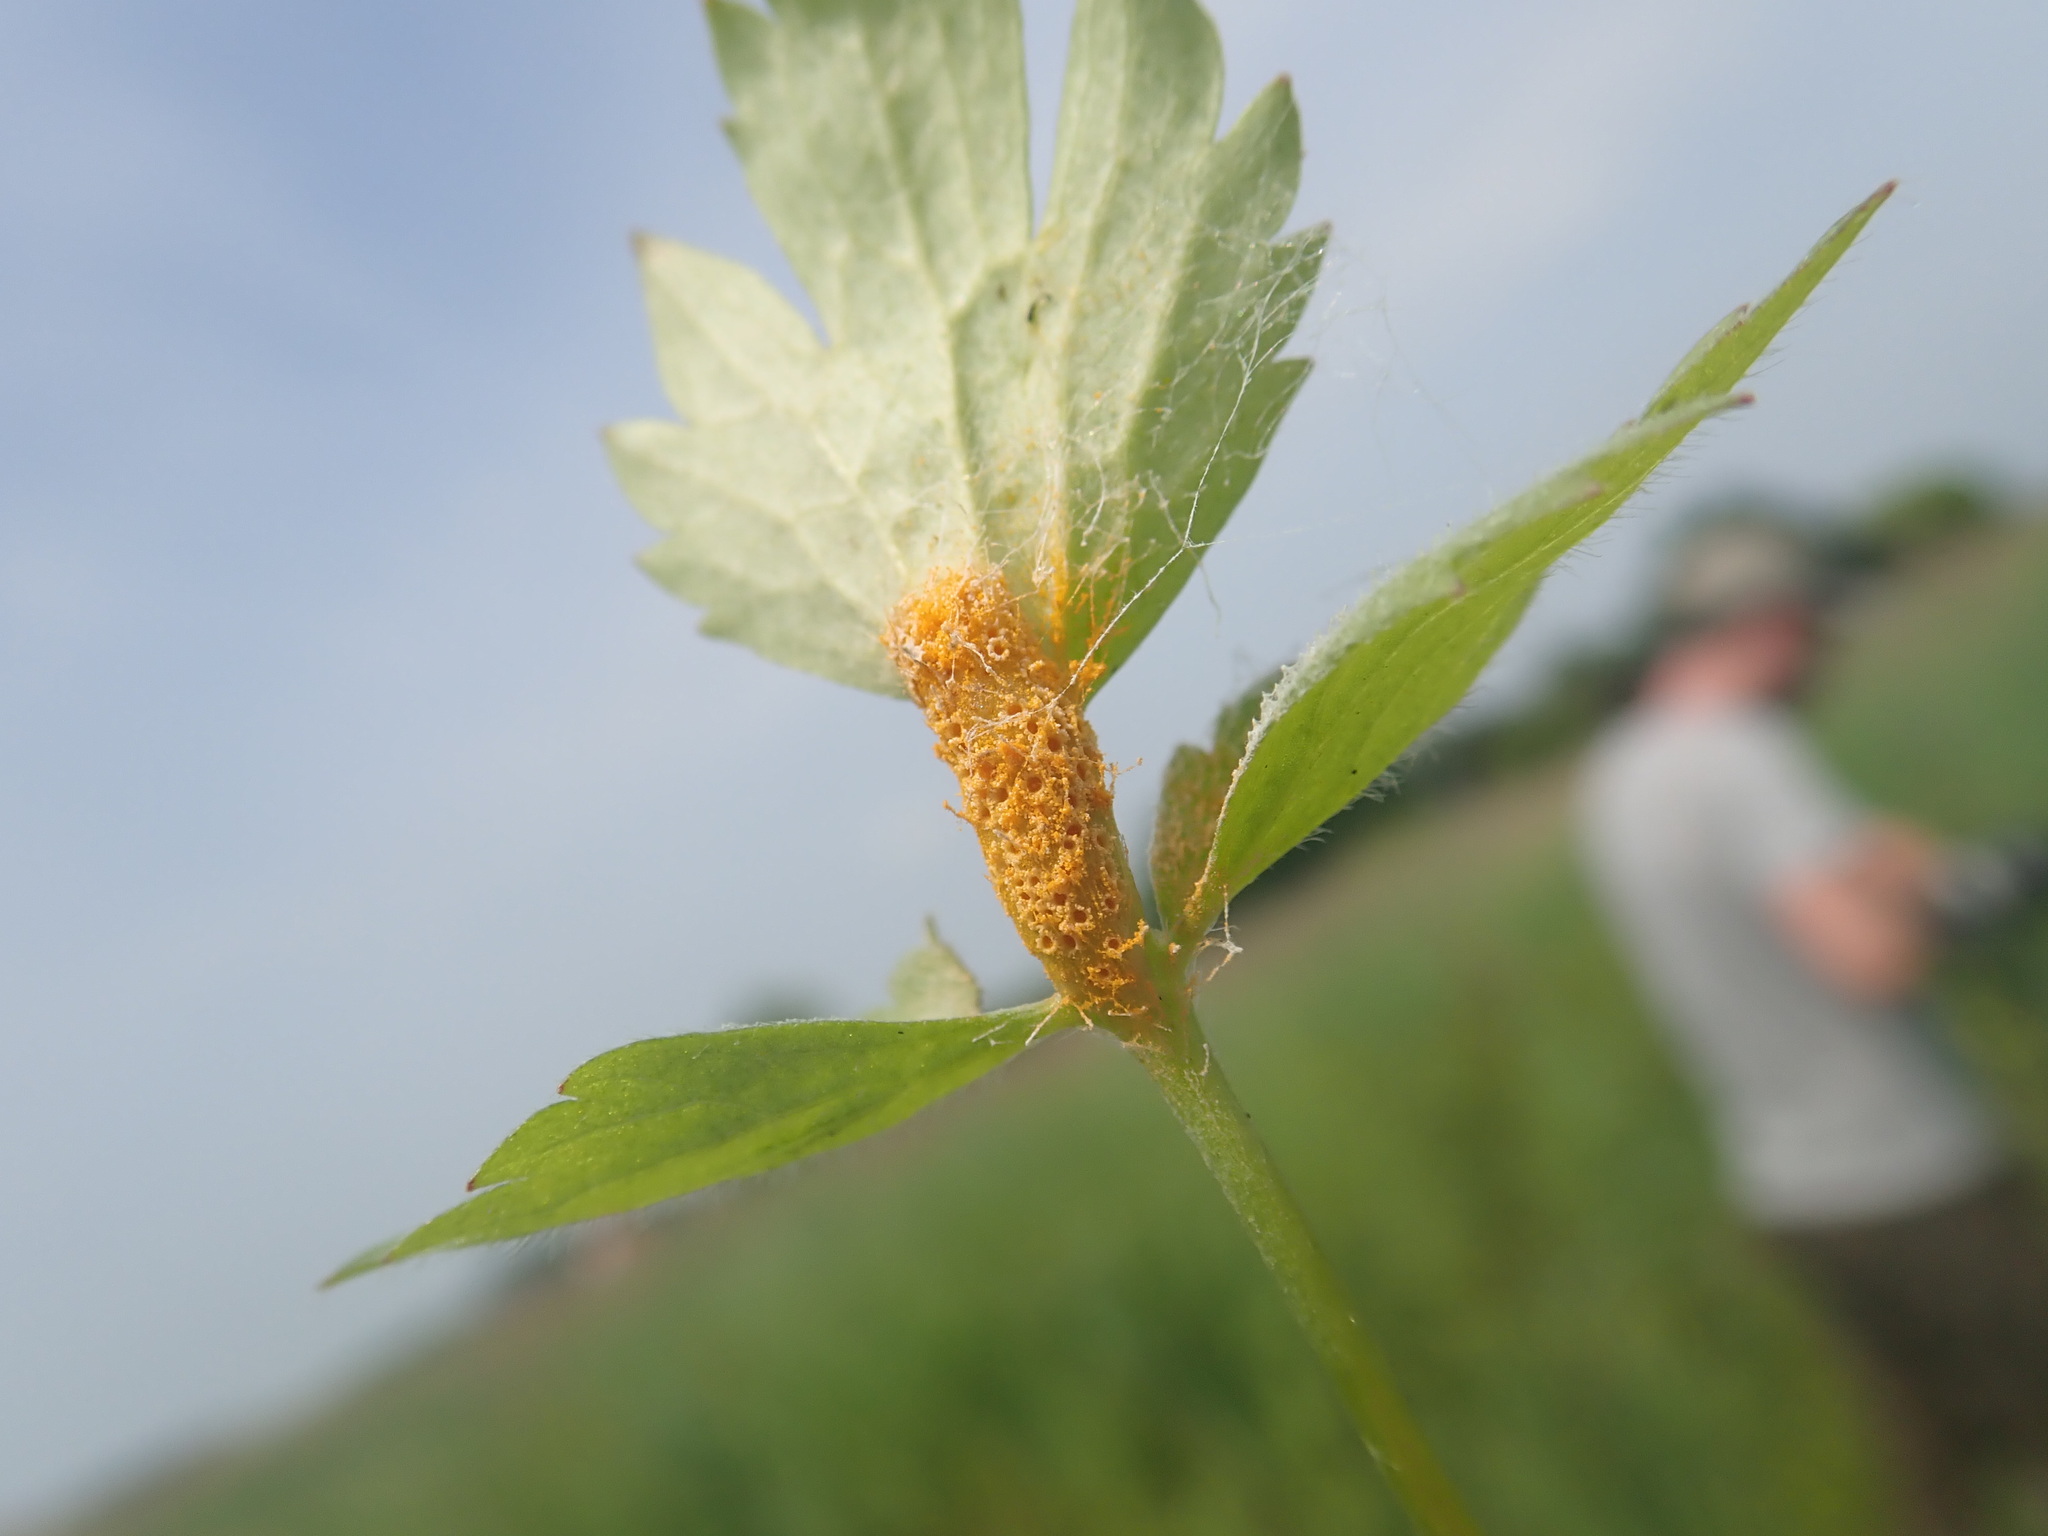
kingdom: Fungi
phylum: Basidiomycota
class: Pucciniomycetes
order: Pucciniales
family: Pucciniaceae
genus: Aecidium
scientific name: Aecidium ranunculi-acris
